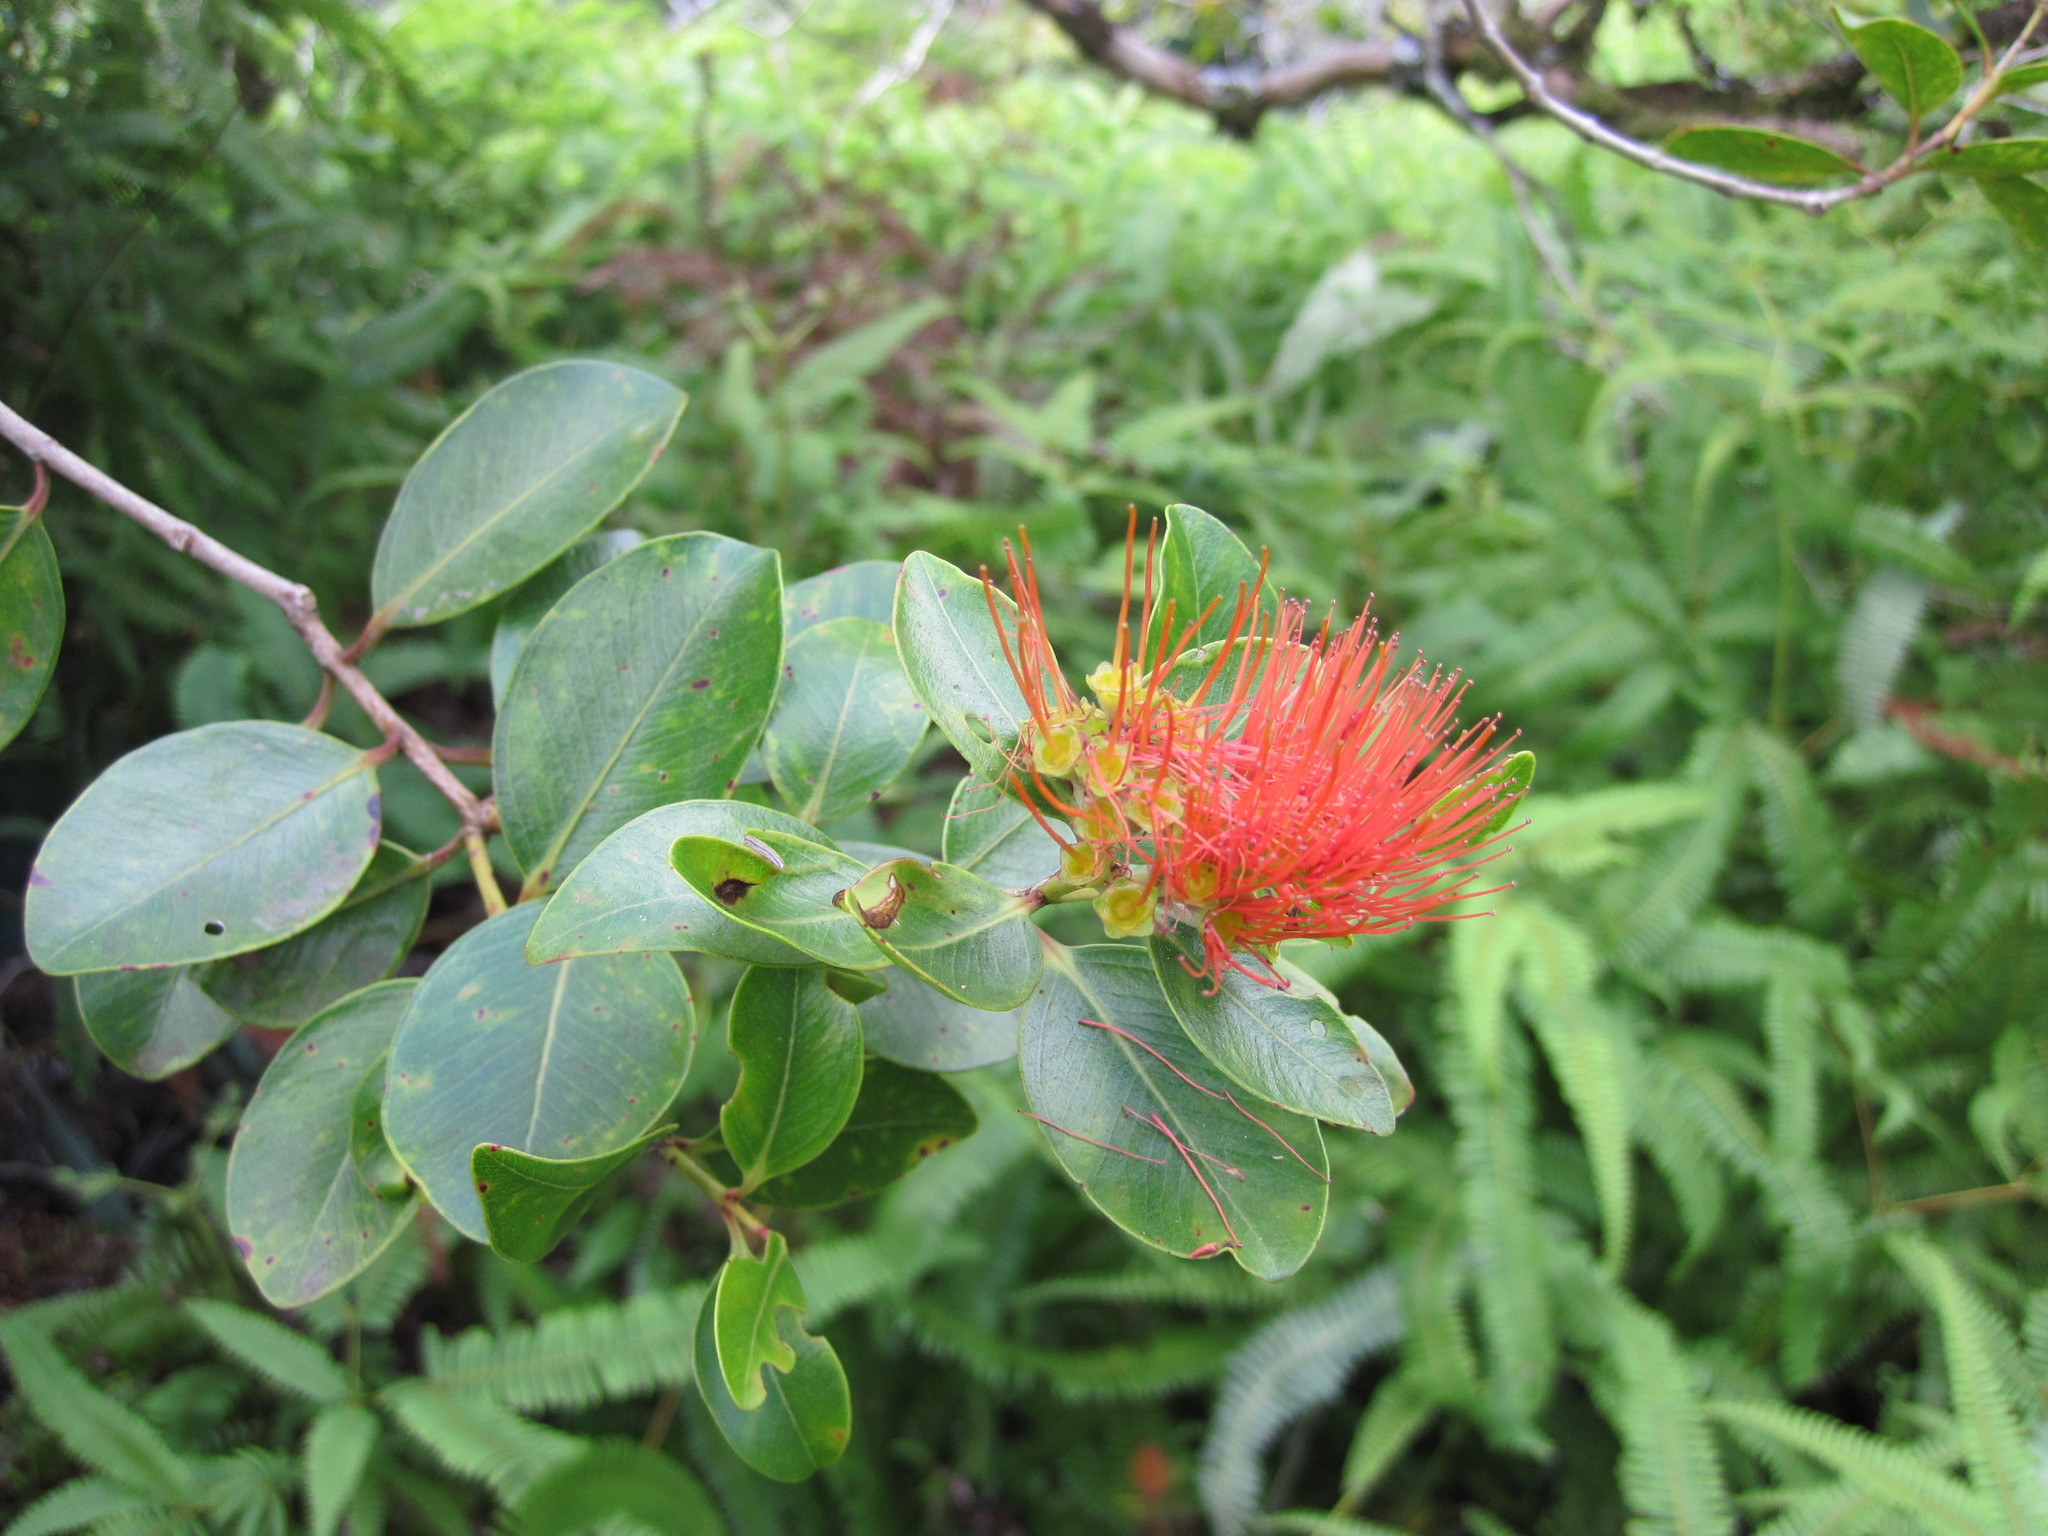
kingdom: Plantae
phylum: Tracheophyta
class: Magnoliopsida
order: Myrtales
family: Myrtaceae
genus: Metrosideros
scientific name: Metrosideros collina
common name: Vunga
